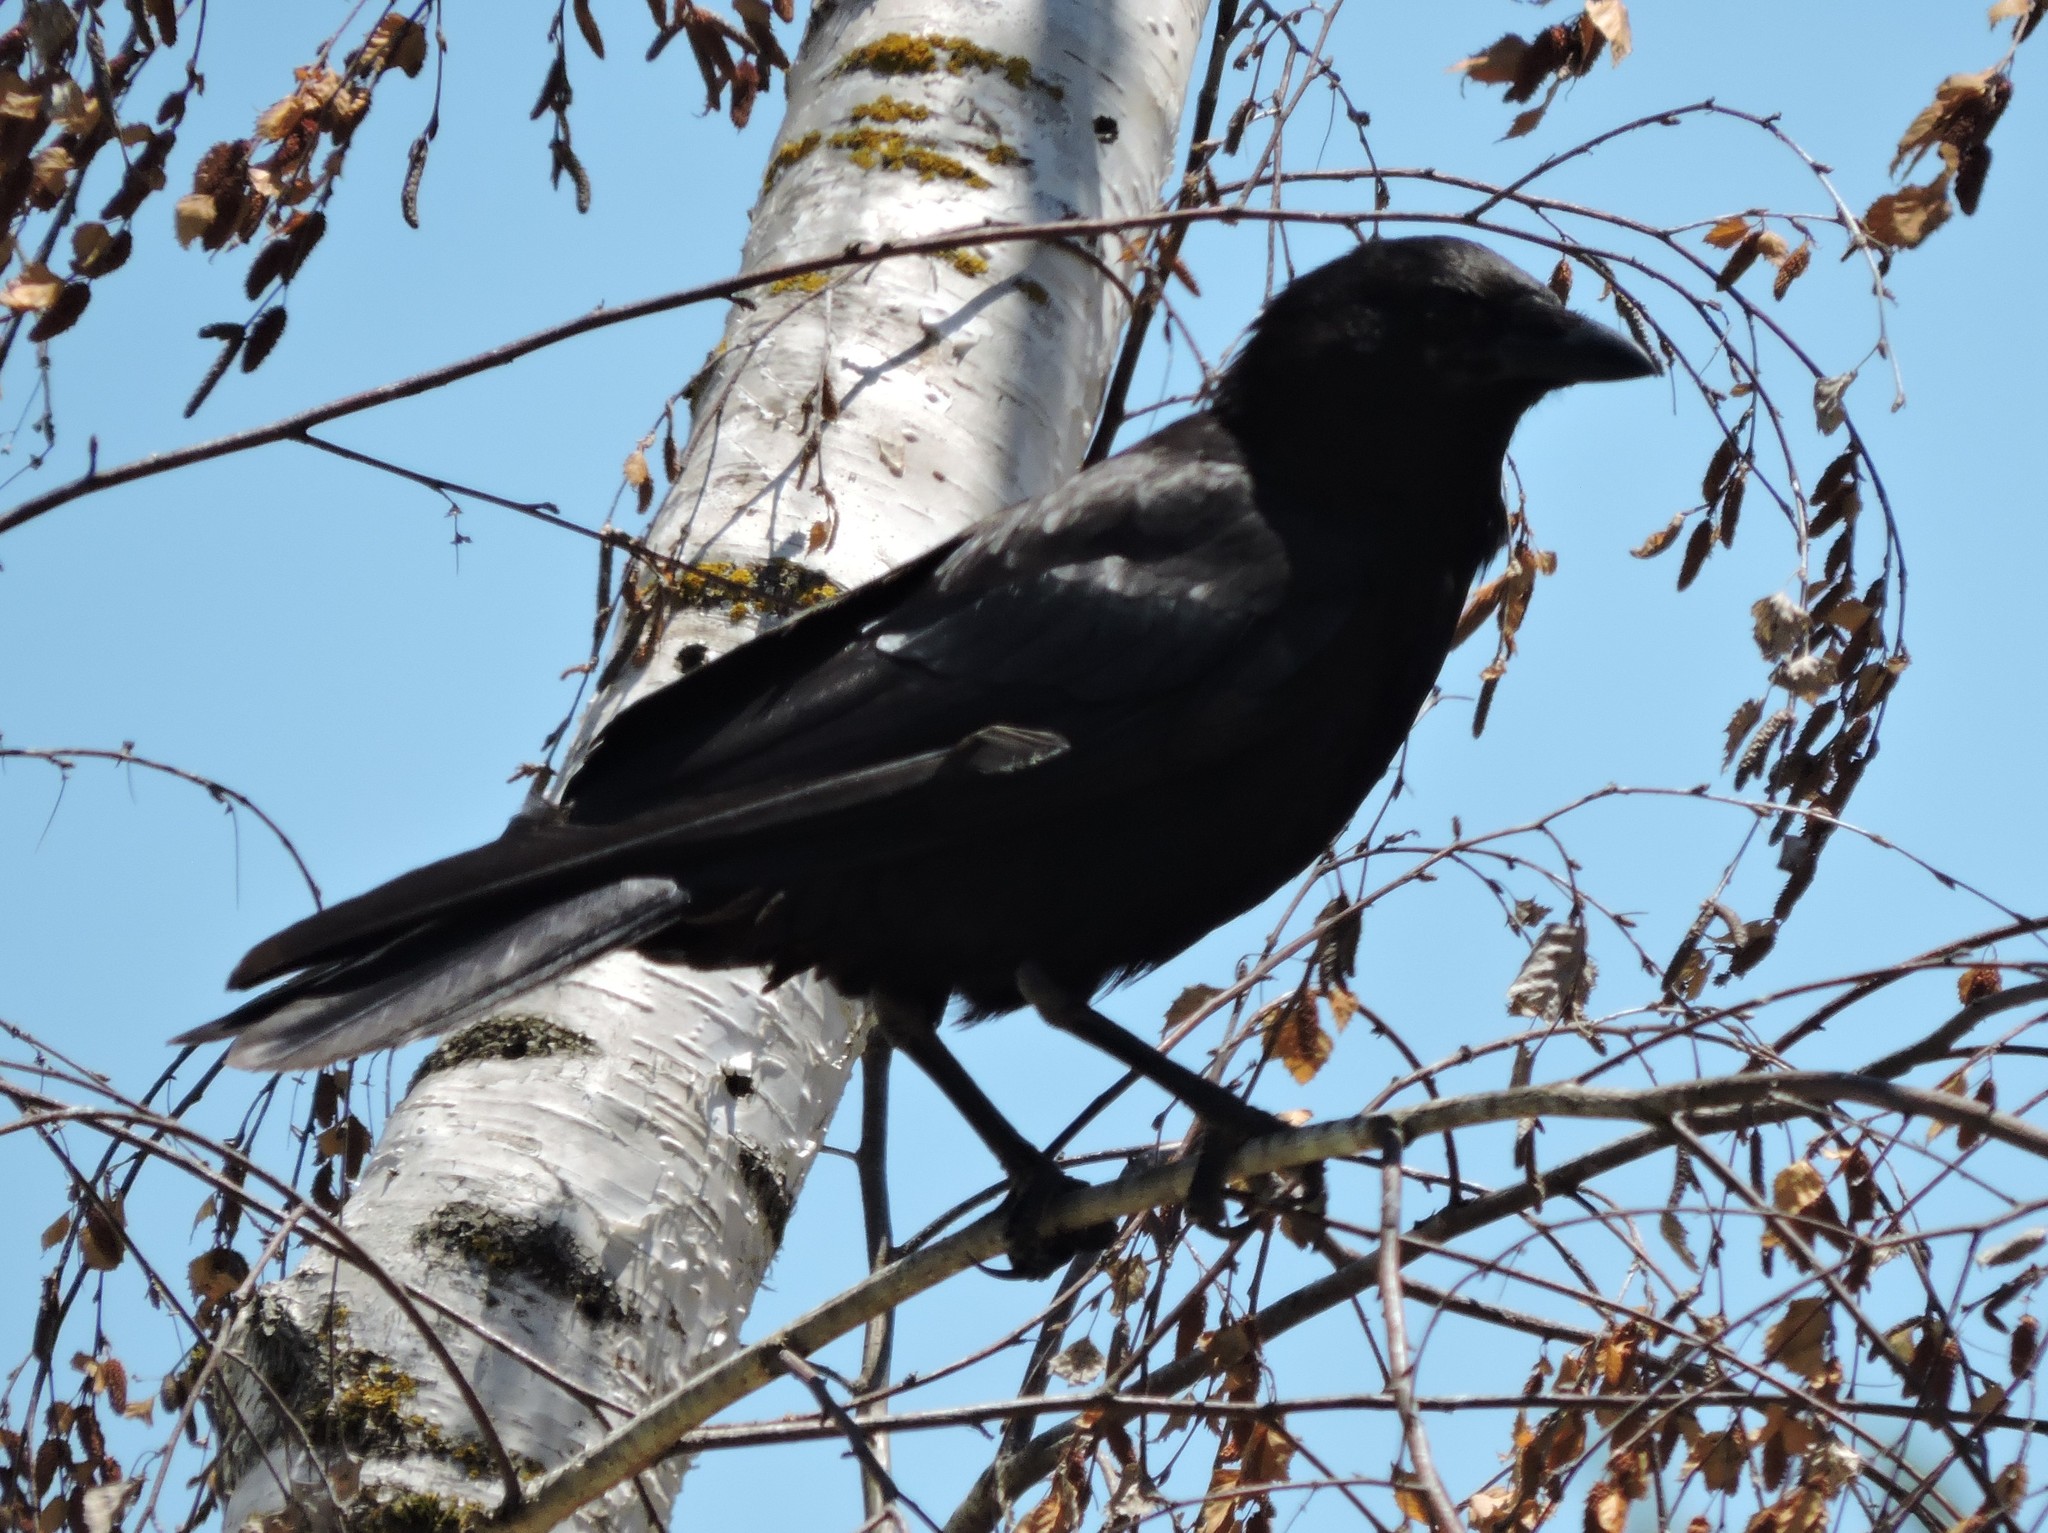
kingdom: Animalia
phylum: Chordata
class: Aves
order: Passeriformes
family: Corvidae
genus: Corvus
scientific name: Corvus brachyrhynchos
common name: American crow
